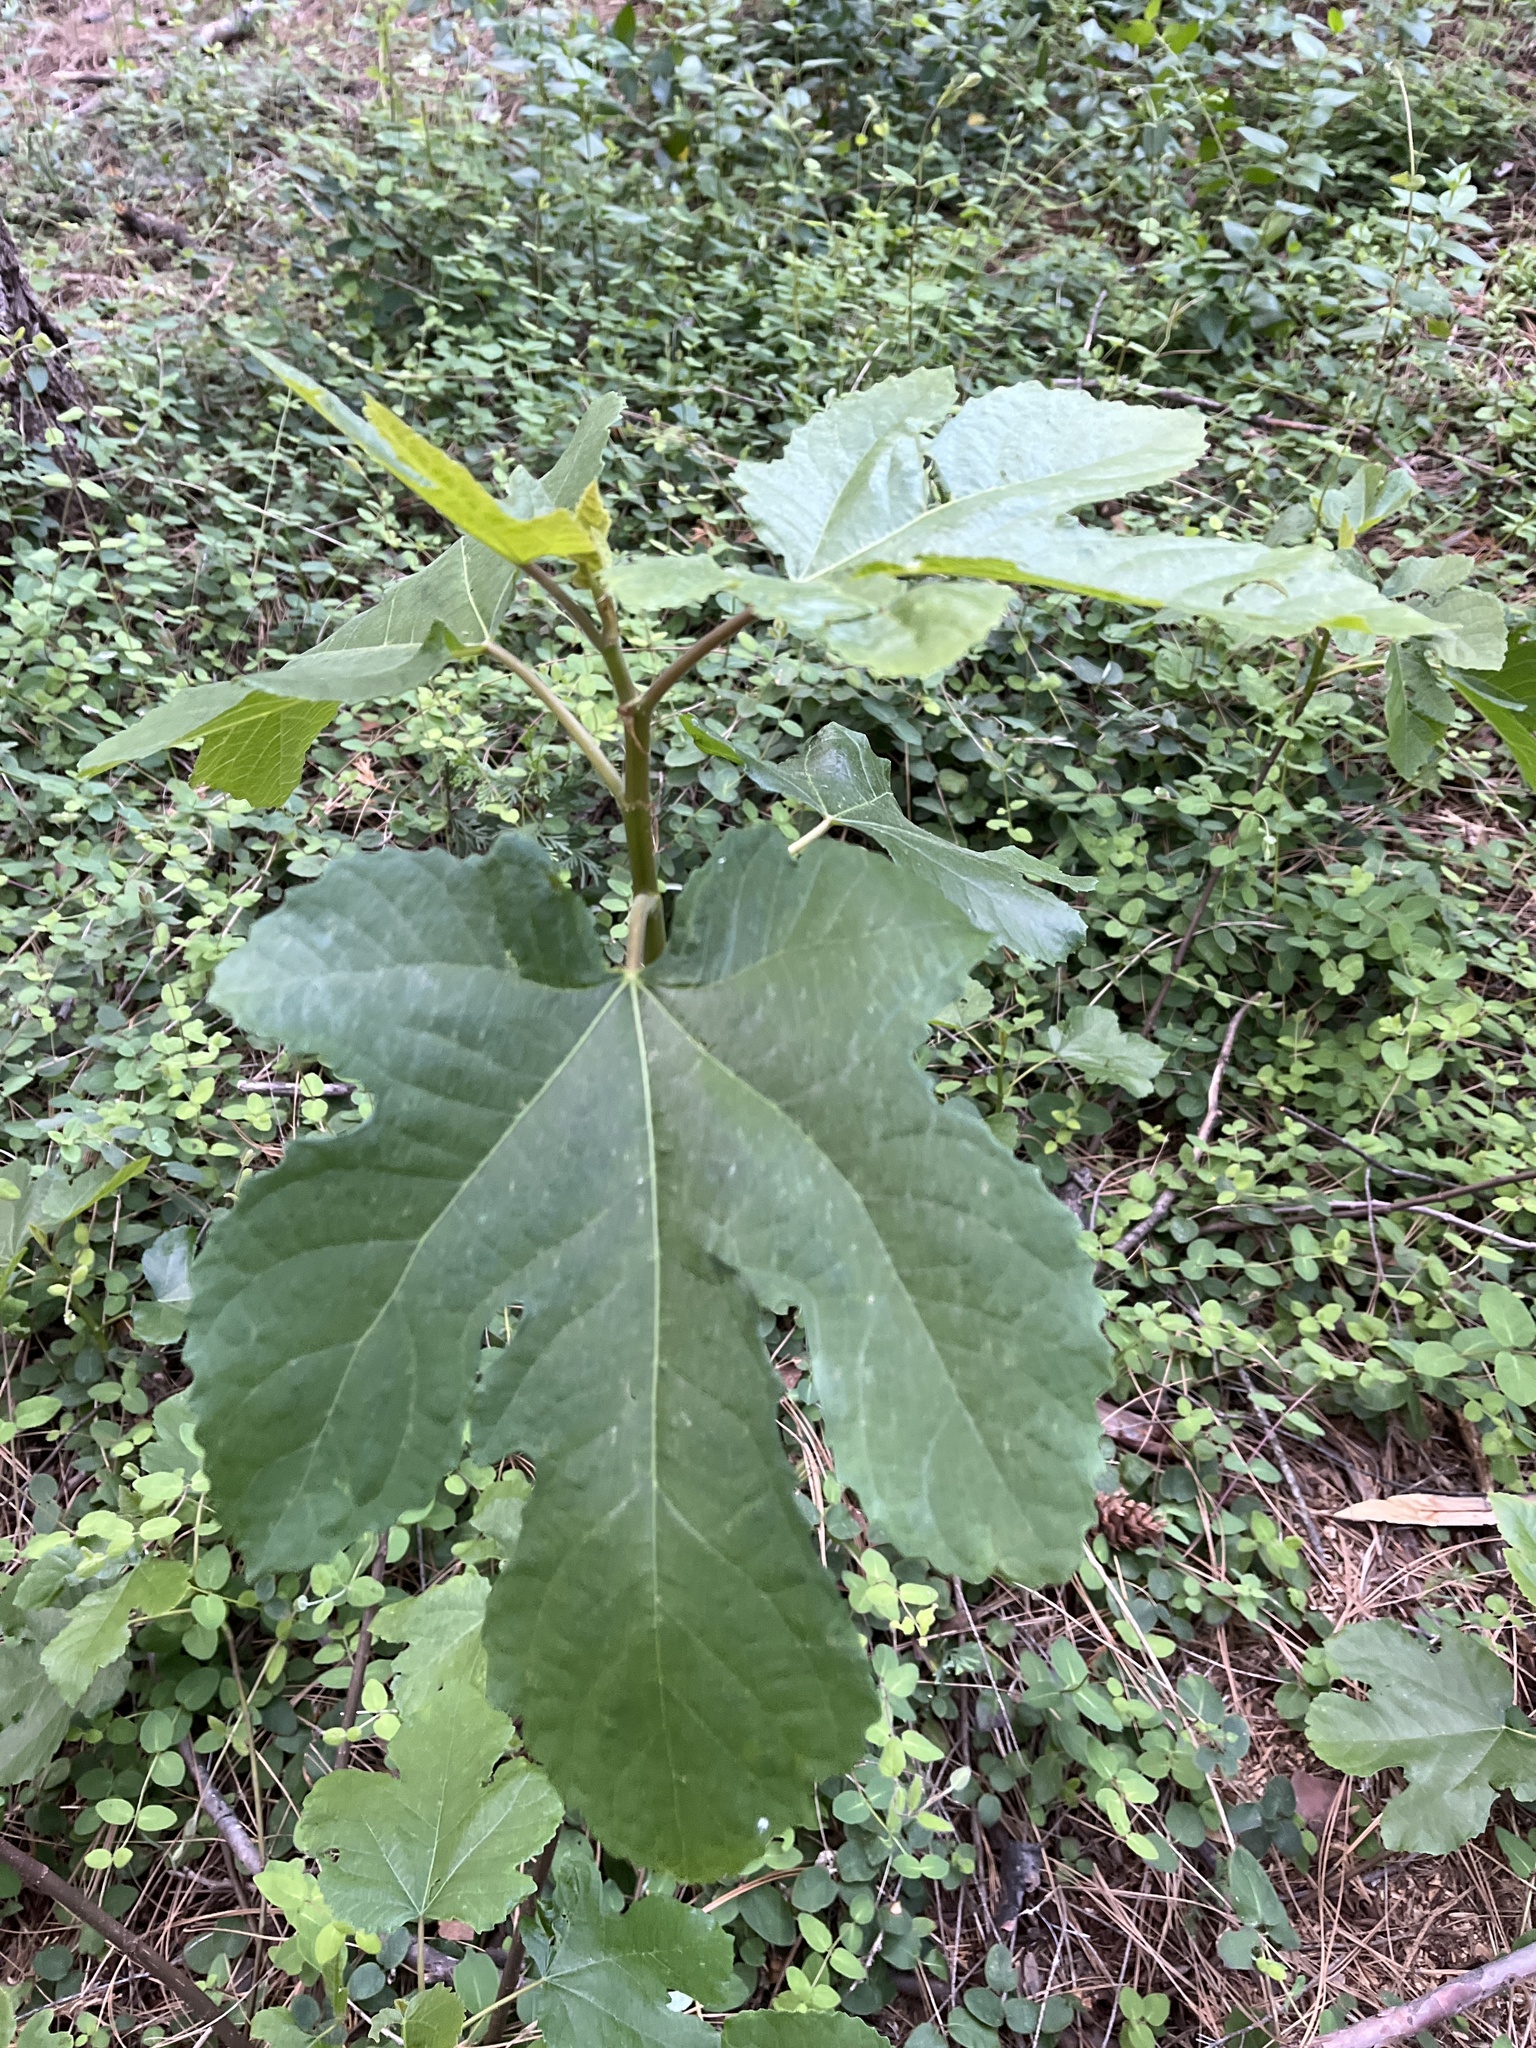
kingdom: Plantae
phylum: Tracheophyta
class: Magnoliopsida
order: Rosales
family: Moraceae
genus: Ficus
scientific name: Ficus carica
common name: Fig
